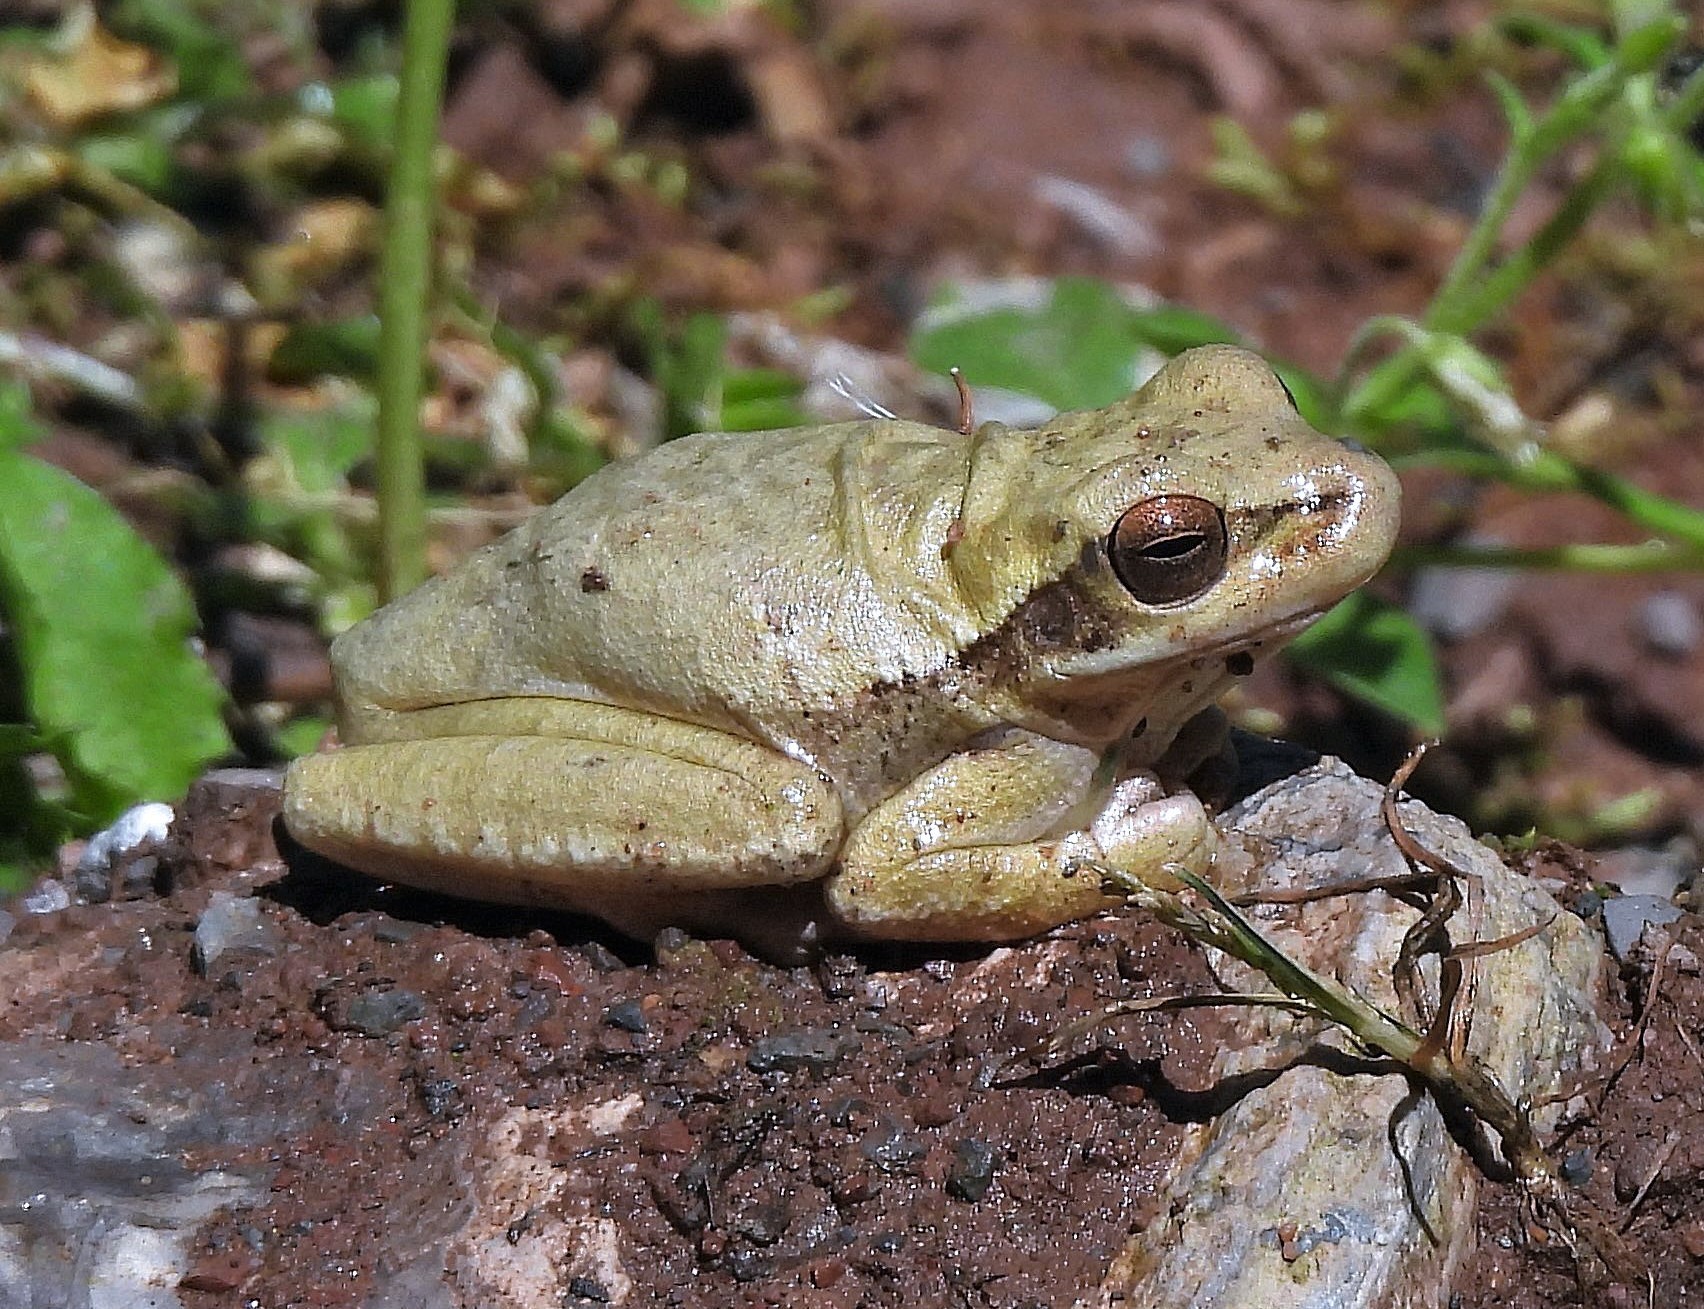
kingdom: Animalia
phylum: Chordata
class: Amphibia
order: Anura
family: Hylidae
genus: Boana
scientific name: Boana riojana
